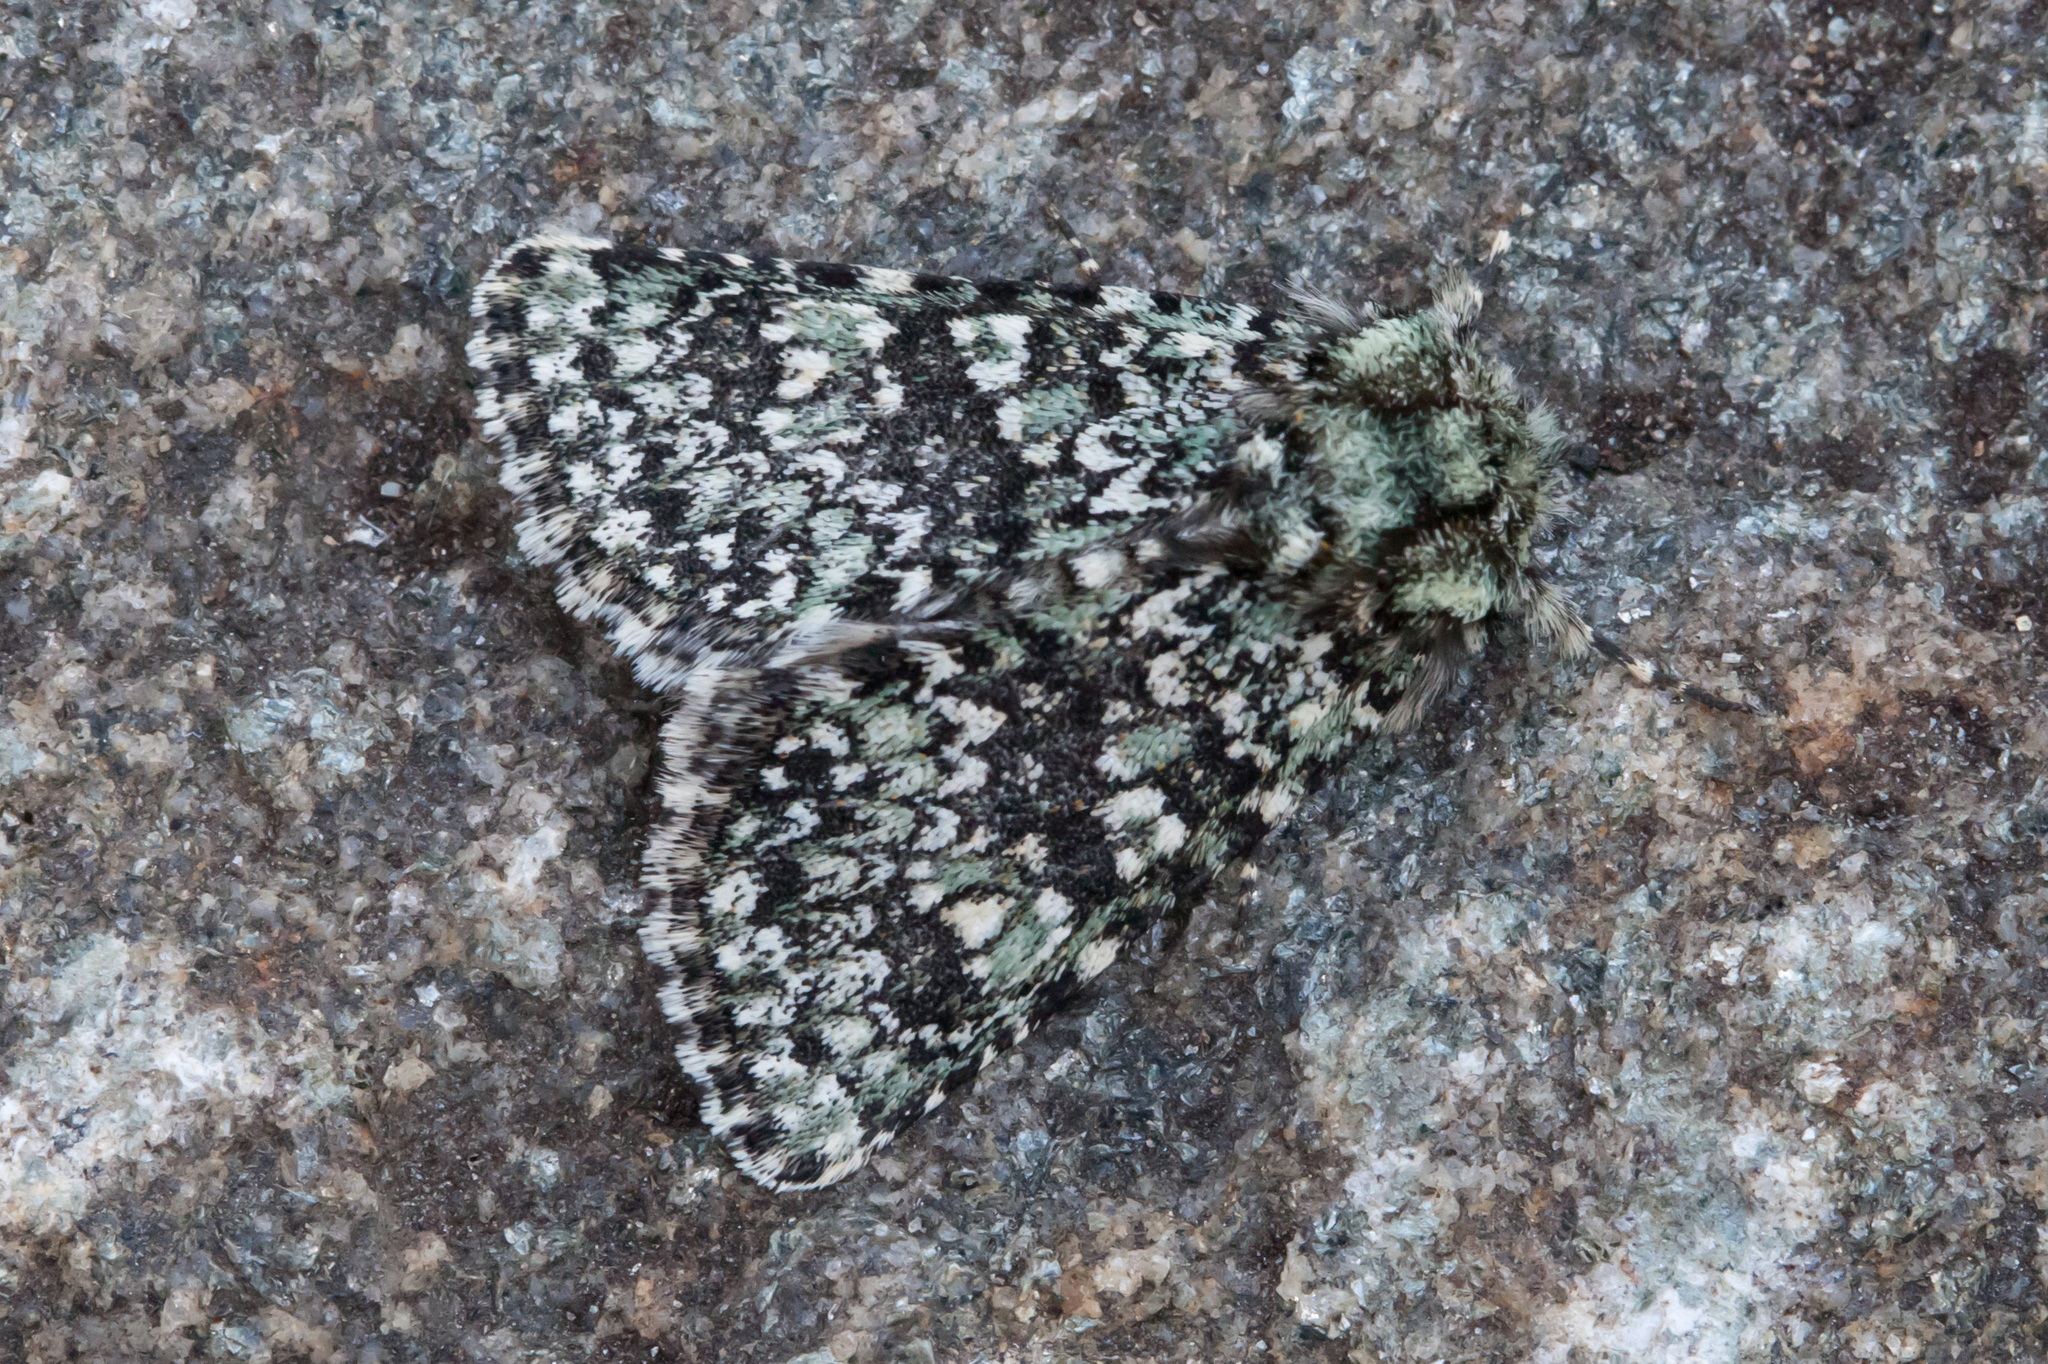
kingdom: Animalia
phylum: Arthropoda
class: Insecta
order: Lepidoptera
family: Noctuidae
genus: Athaumasta
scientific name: Athaumasta expressa
